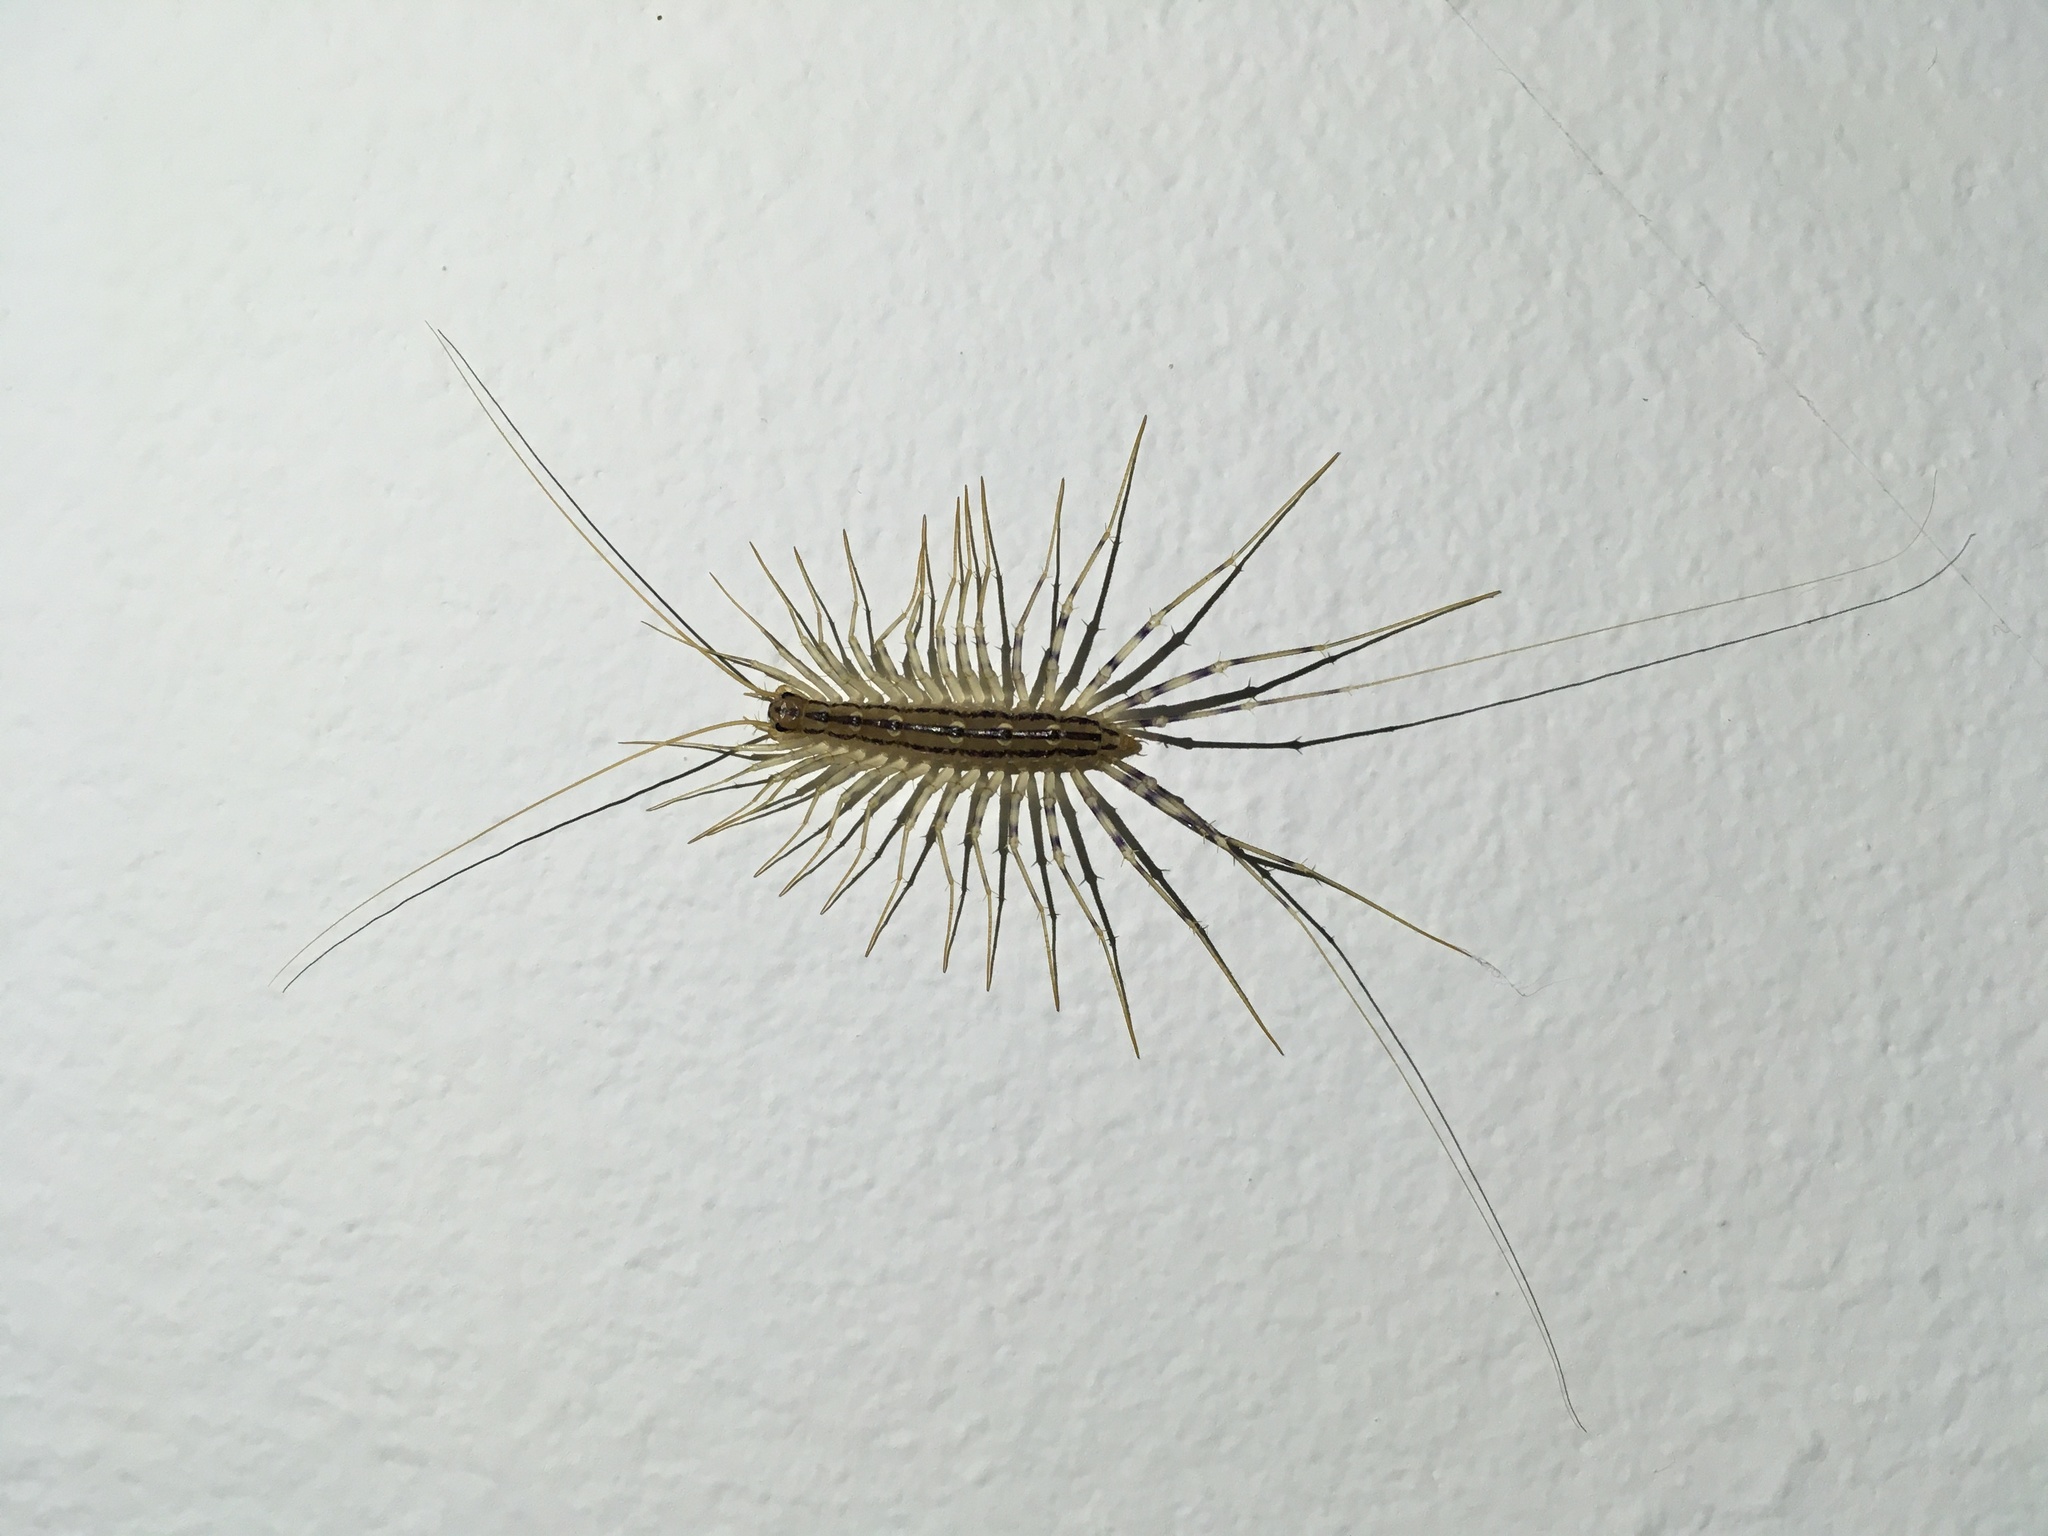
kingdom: Animalia
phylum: Arthropoda
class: Chilopoda
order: Scutigeromorpha
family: Scutigeridae
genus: Scutigera
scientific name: Scutigera coleoptrata
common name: House centipede
